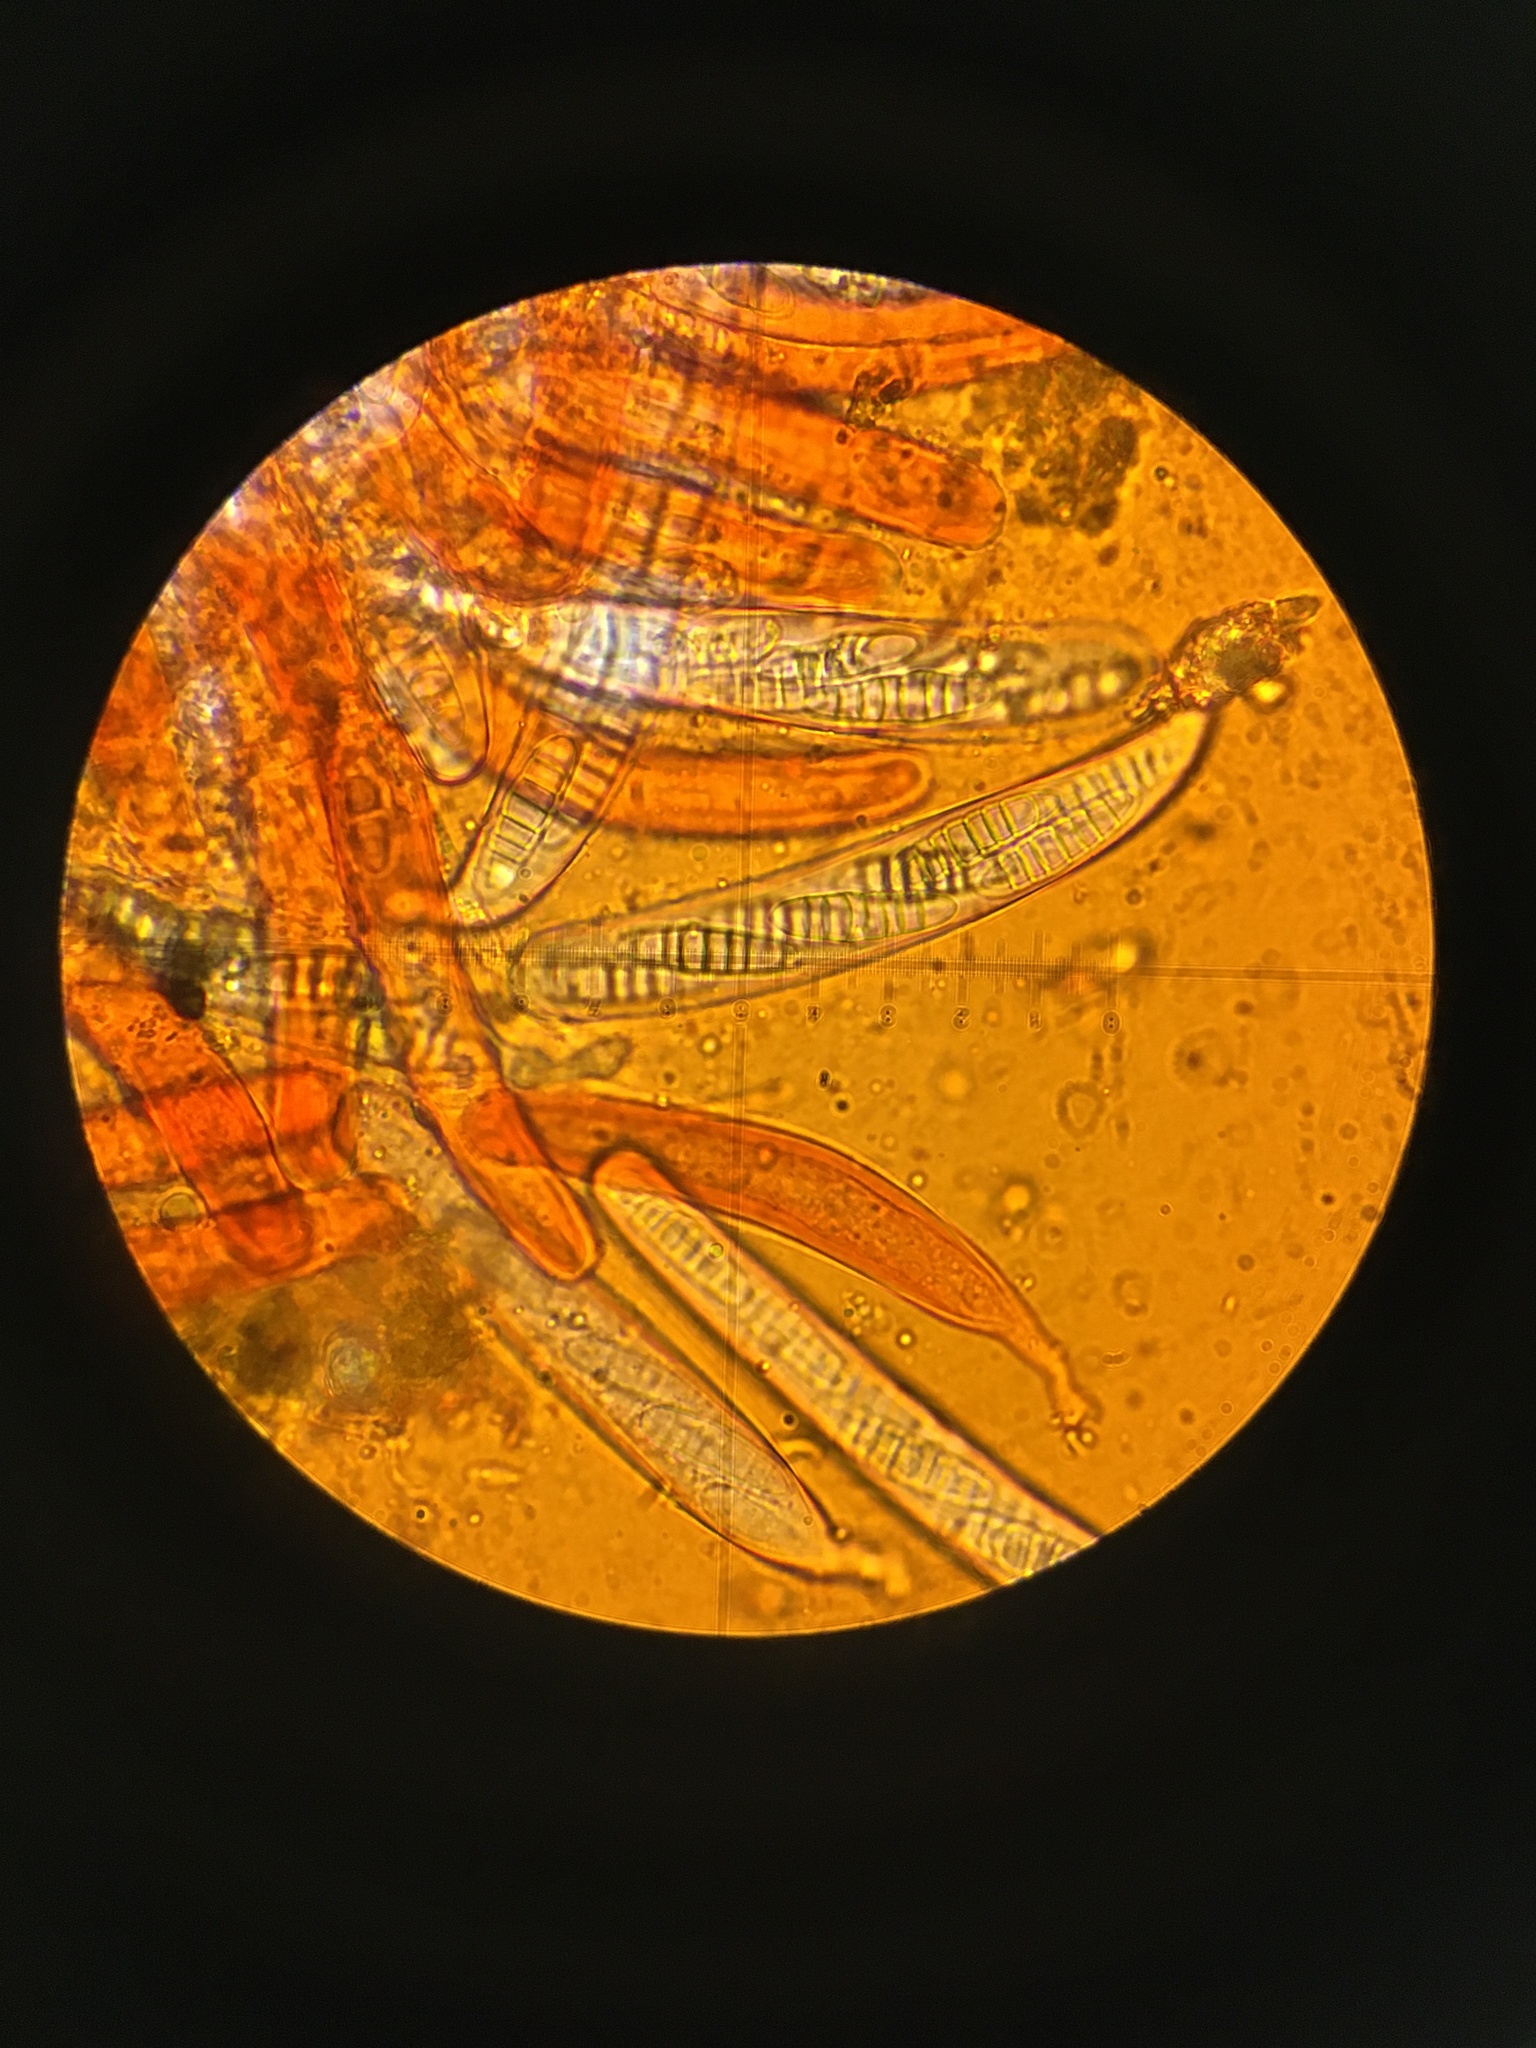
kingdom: Fungi
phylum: Ascomycota
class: Dothideomycetes
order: Pleosporales
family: Sporormiaceae
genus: Preussia
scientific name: Preussia minipascua
